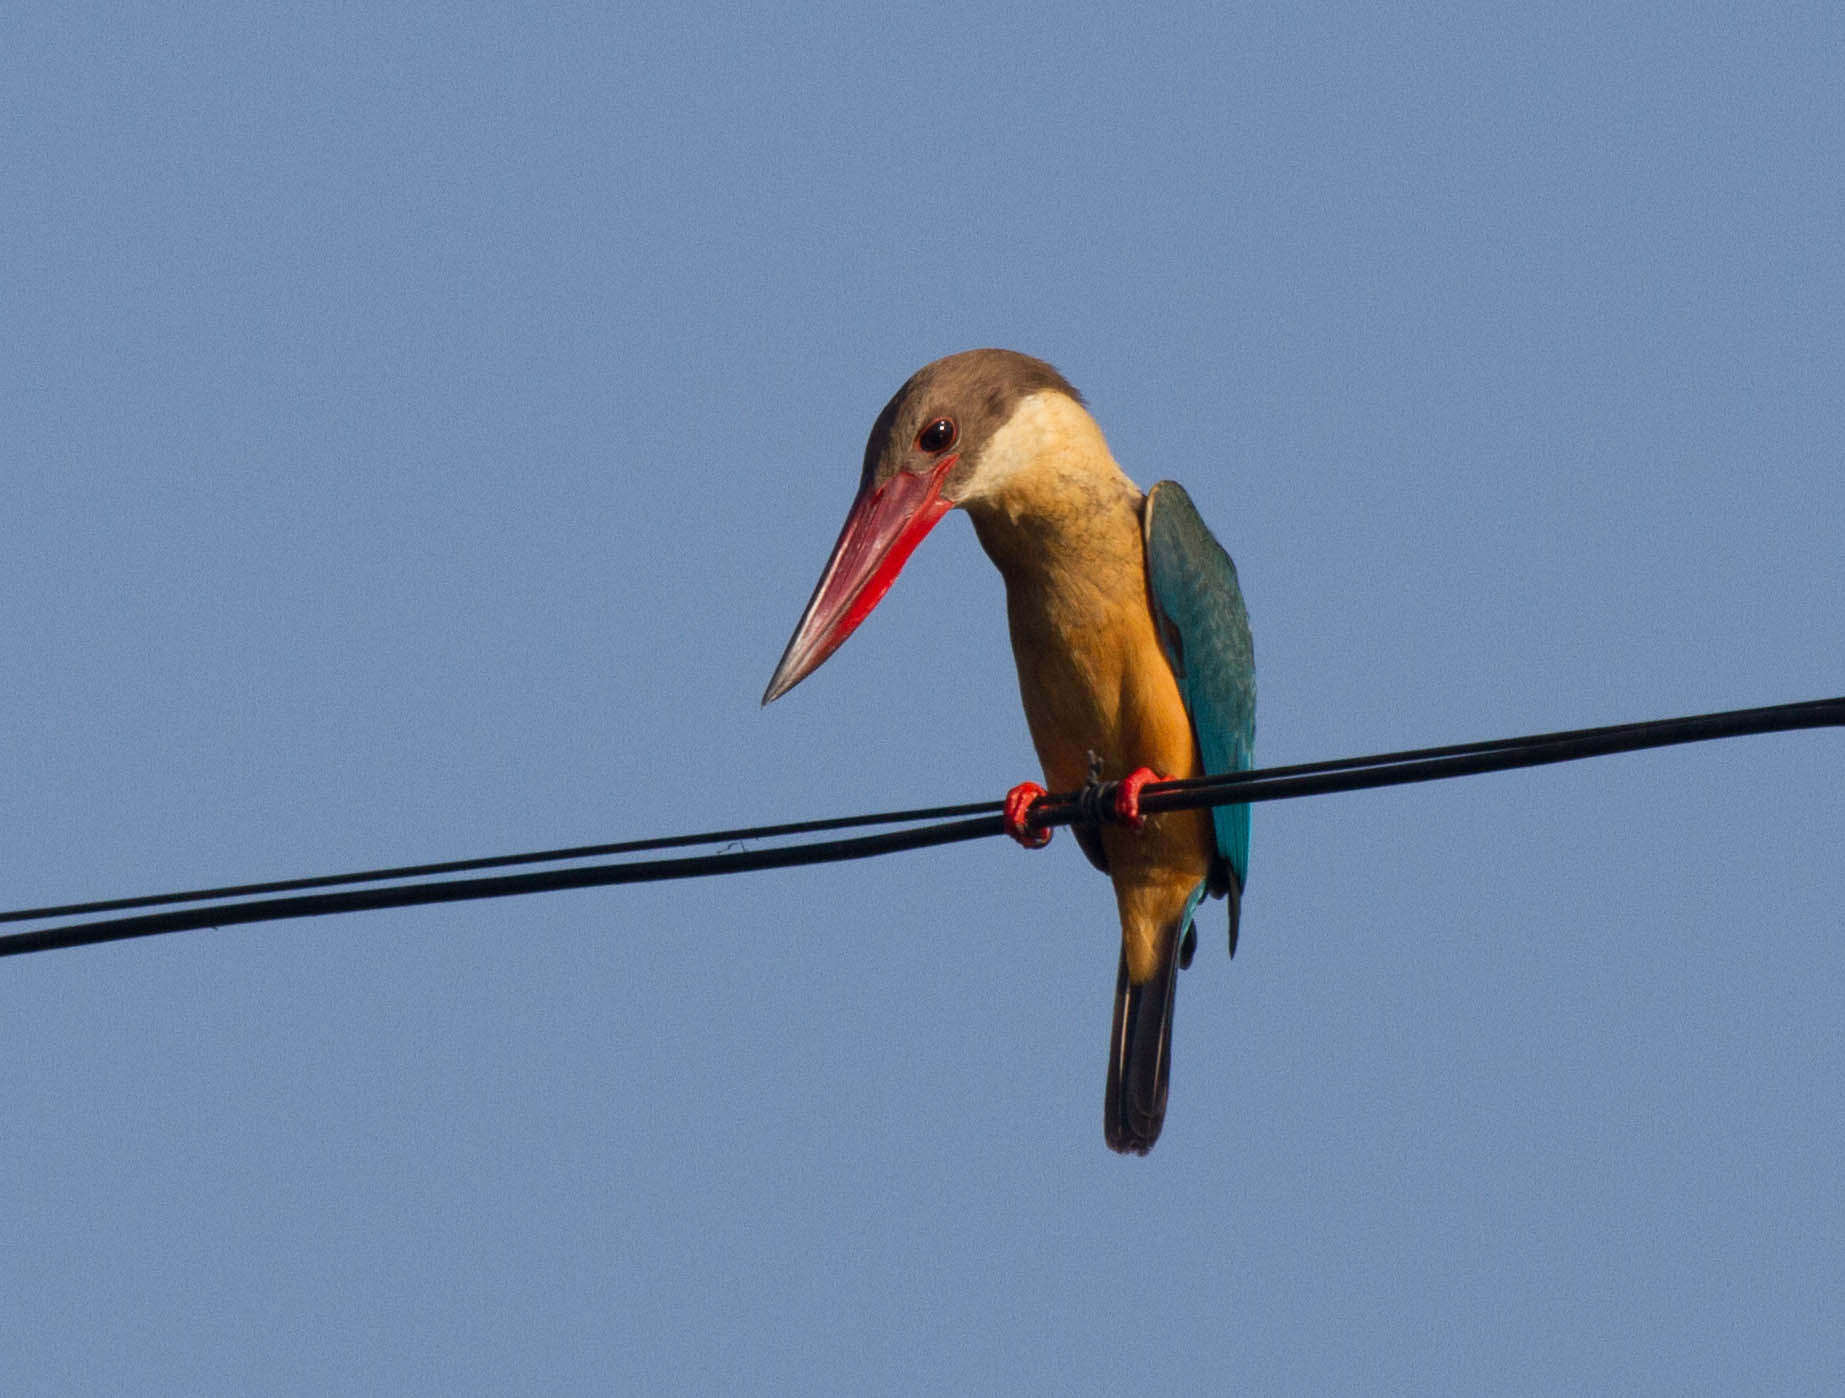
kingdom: Animalia
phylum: Chordata
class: Aves
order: Coraciiformes
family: Alcedinidae
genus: Pelargopsis
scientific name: Pelargopsis capensis
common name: Stork-billed kingfisher
